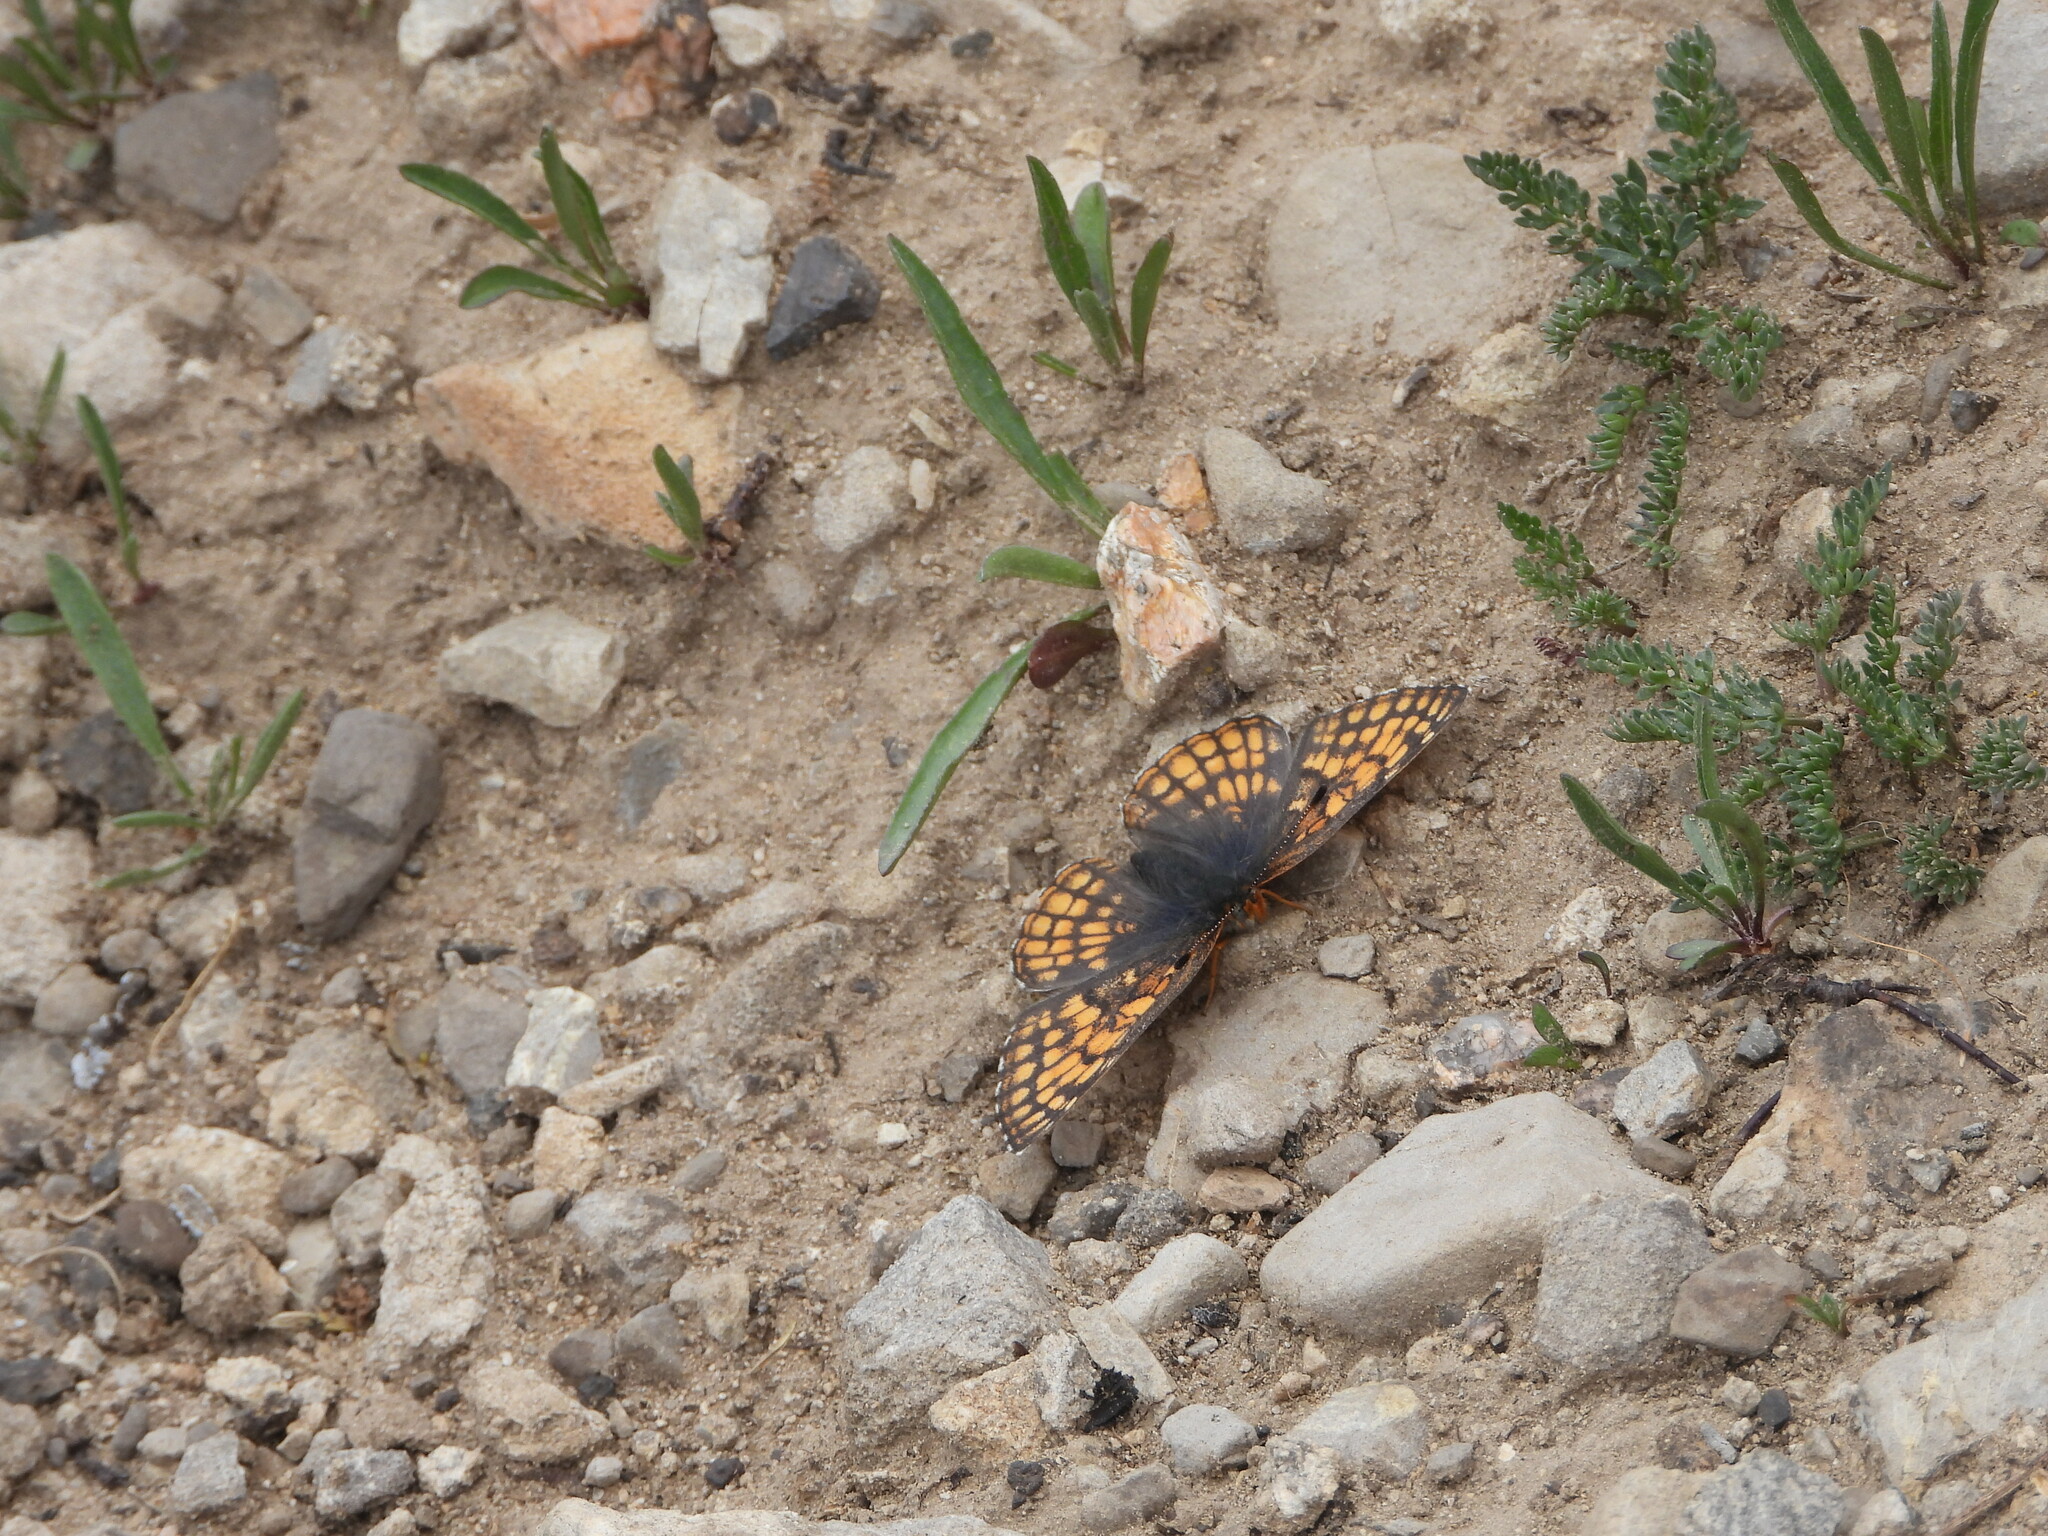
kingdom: Animalia
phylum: Arthropoda
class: Insecta
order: Lepidoptera
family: Nymphalidae
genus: Chlosyne
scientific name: Chlosyne damoetas
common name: Rockslide checkerspot
